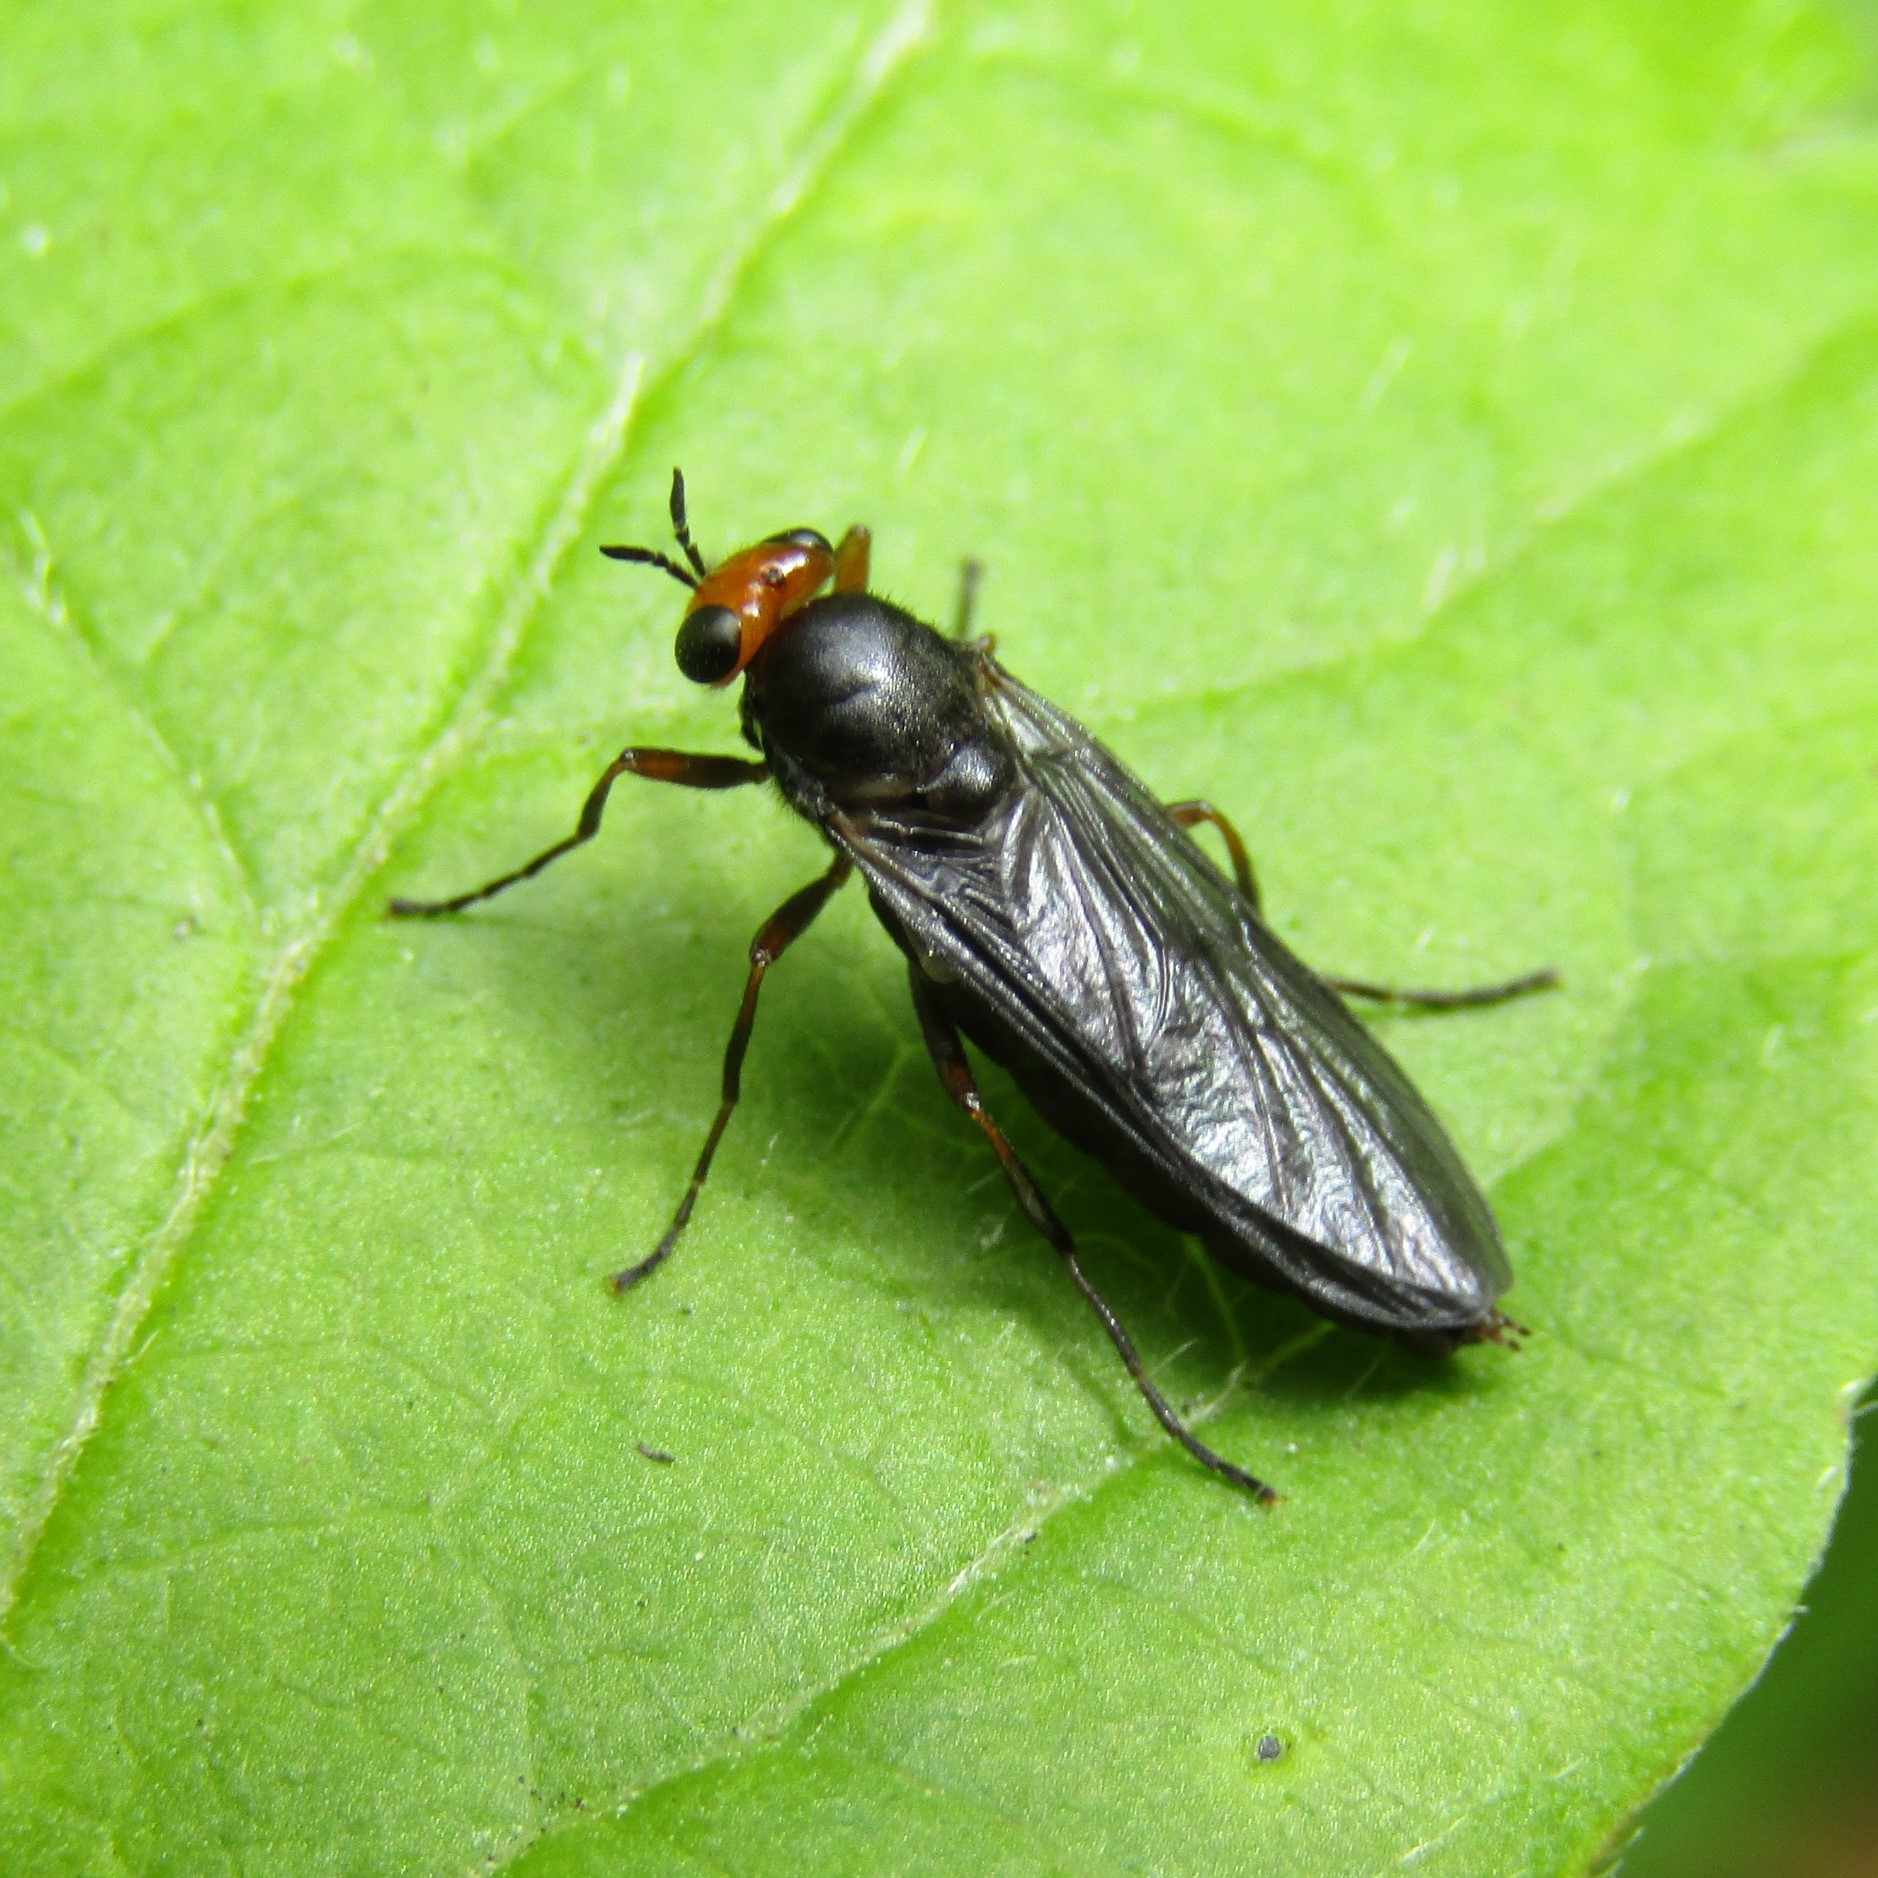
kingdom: Animalia
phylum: Arthropoda
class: Insecta
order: Diptera
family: Stratiomyidae
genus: Inopus
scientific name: Inopus rubriceps
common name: Soldier fly
